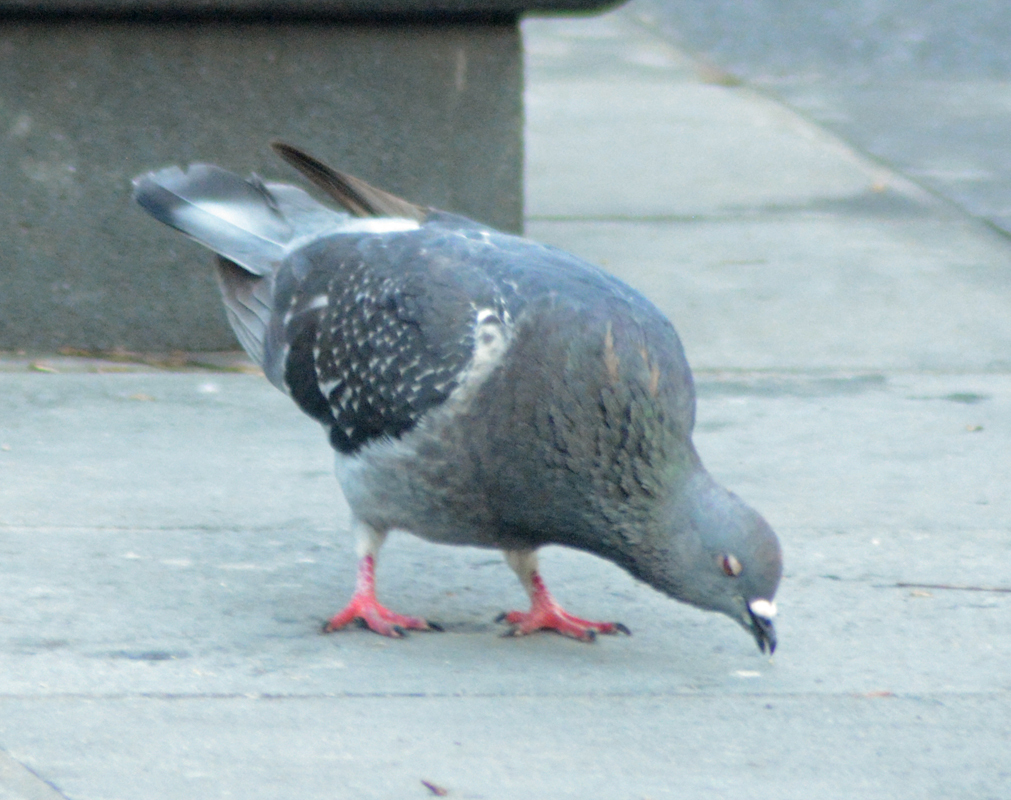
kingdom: Animalia
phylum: Chordata
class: Aves
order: Columbiformes
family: Columbidae
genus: Columba
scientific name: Columba livia
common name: Rock pigeon
